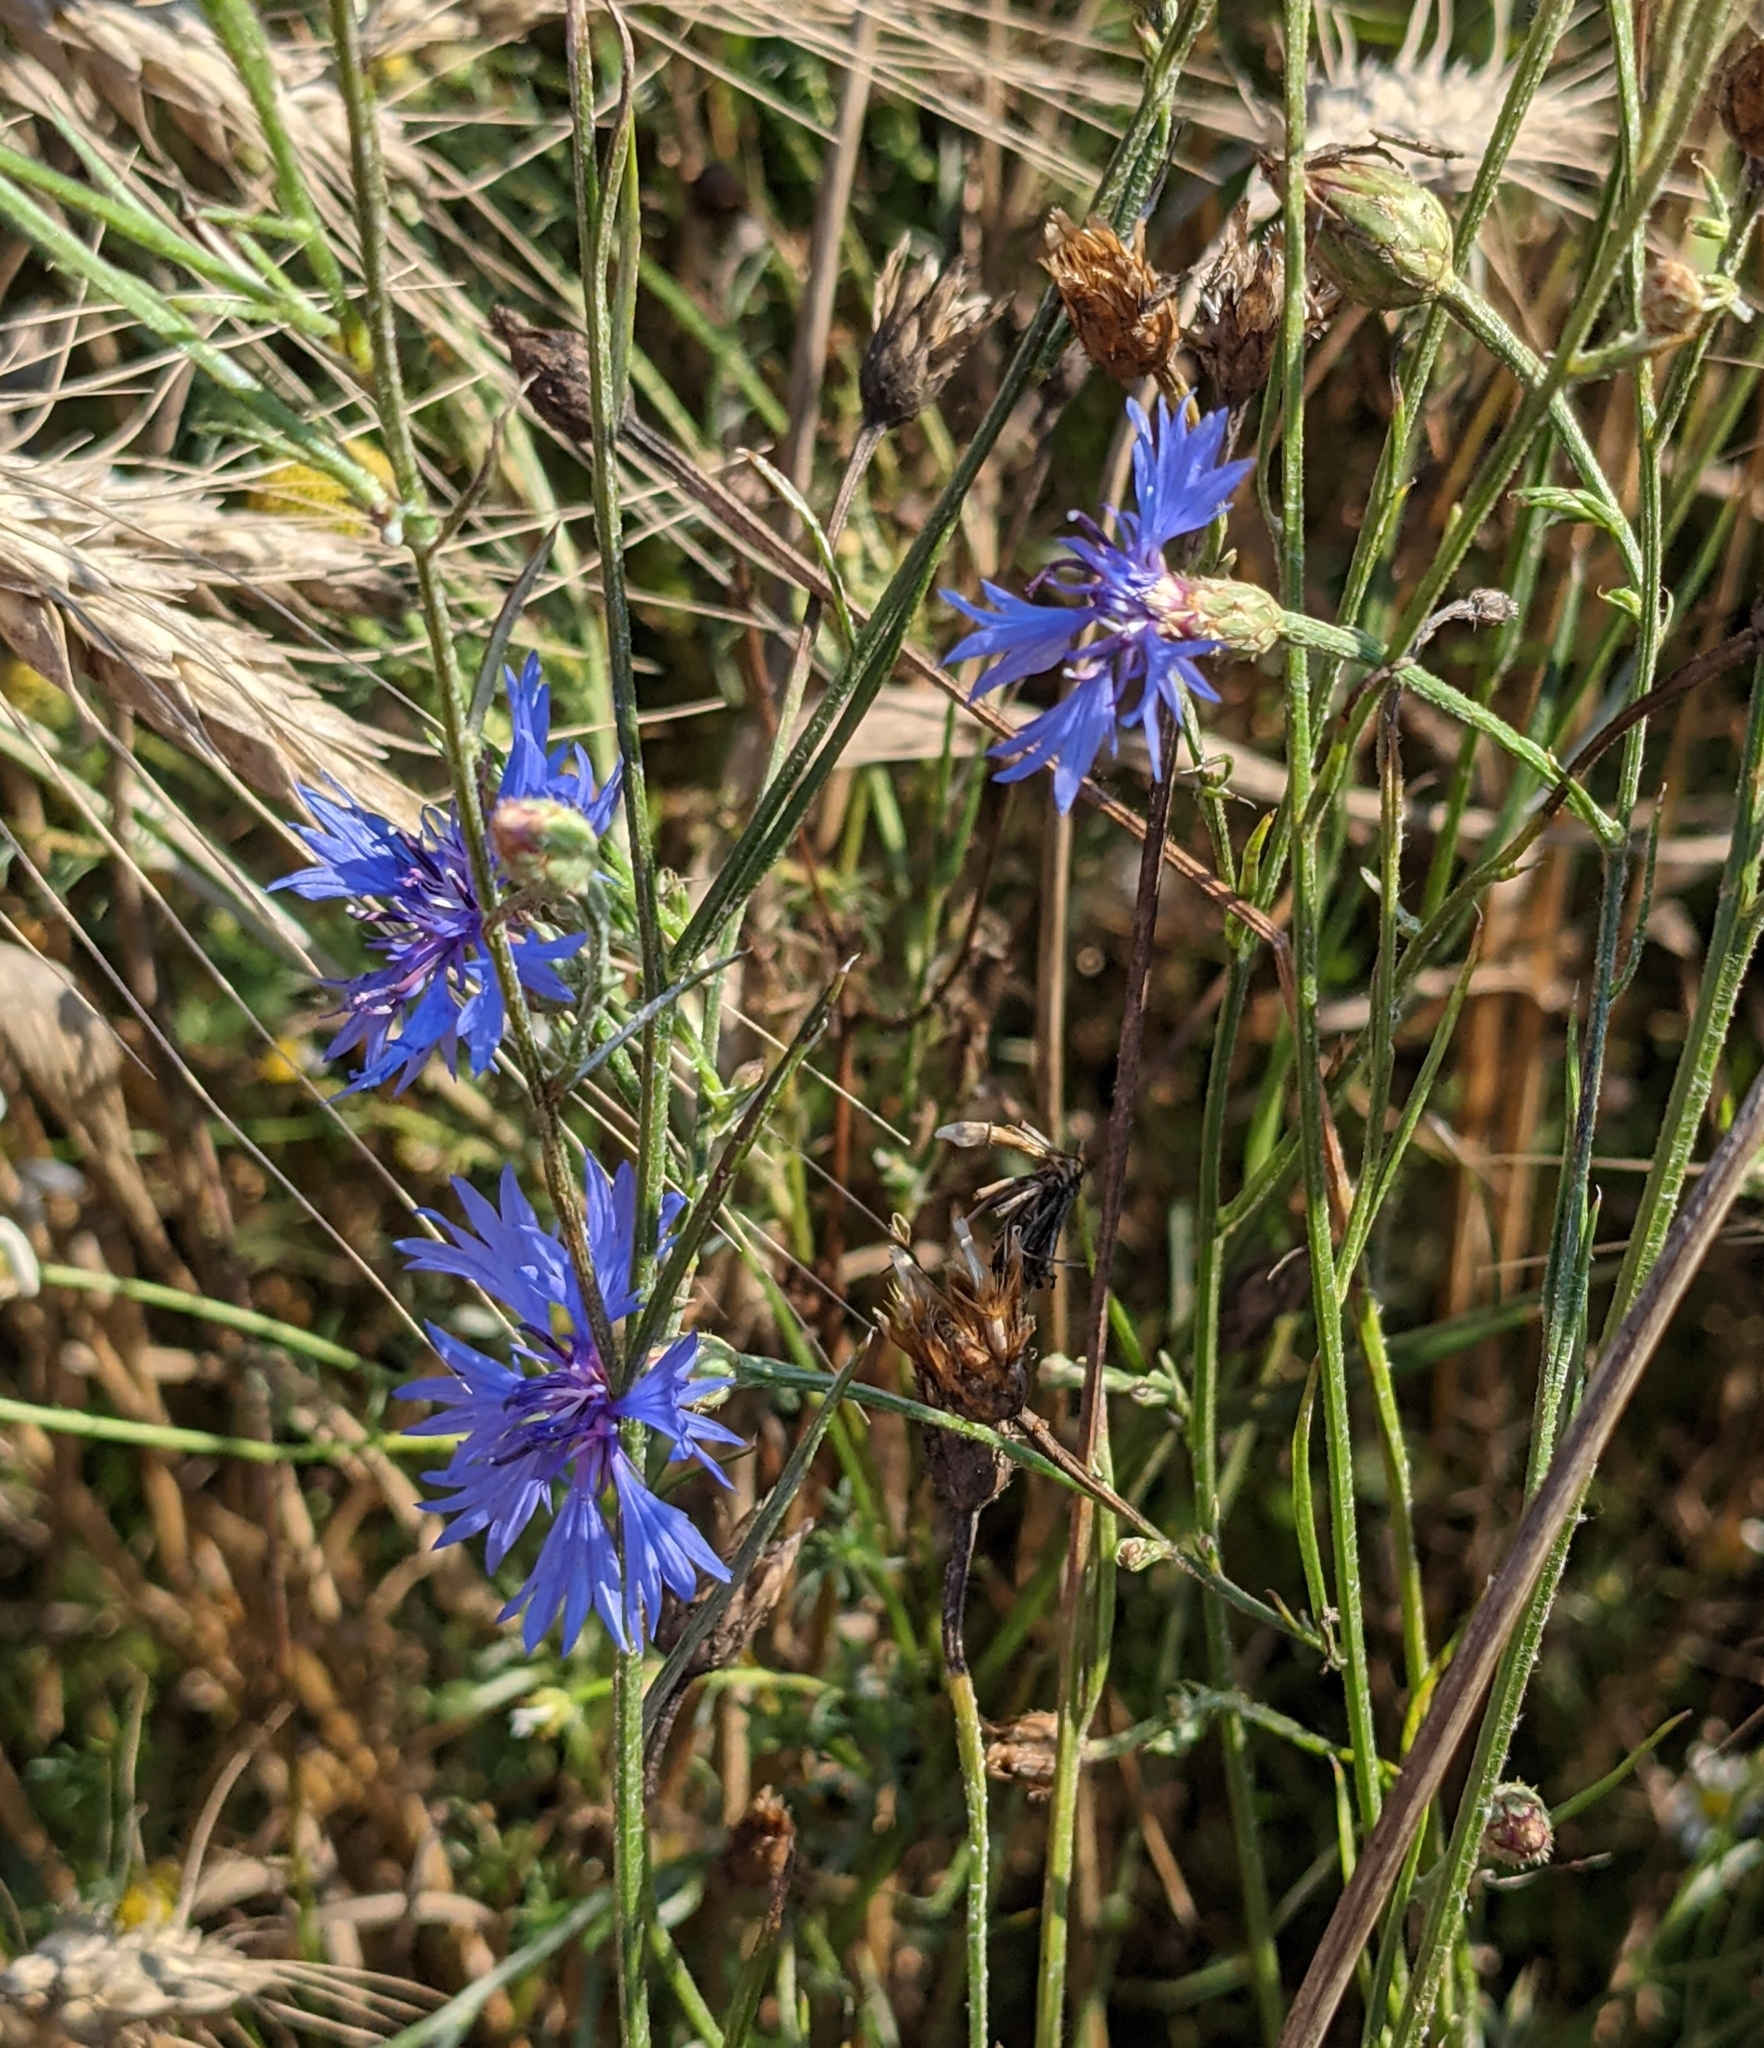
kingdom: Plantae
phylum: Tracheophyta
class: Magnoliopsida
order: Asterales
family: Asteraceae
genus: Centaurea
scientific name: Centaurea cyanus
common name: Cornflower
